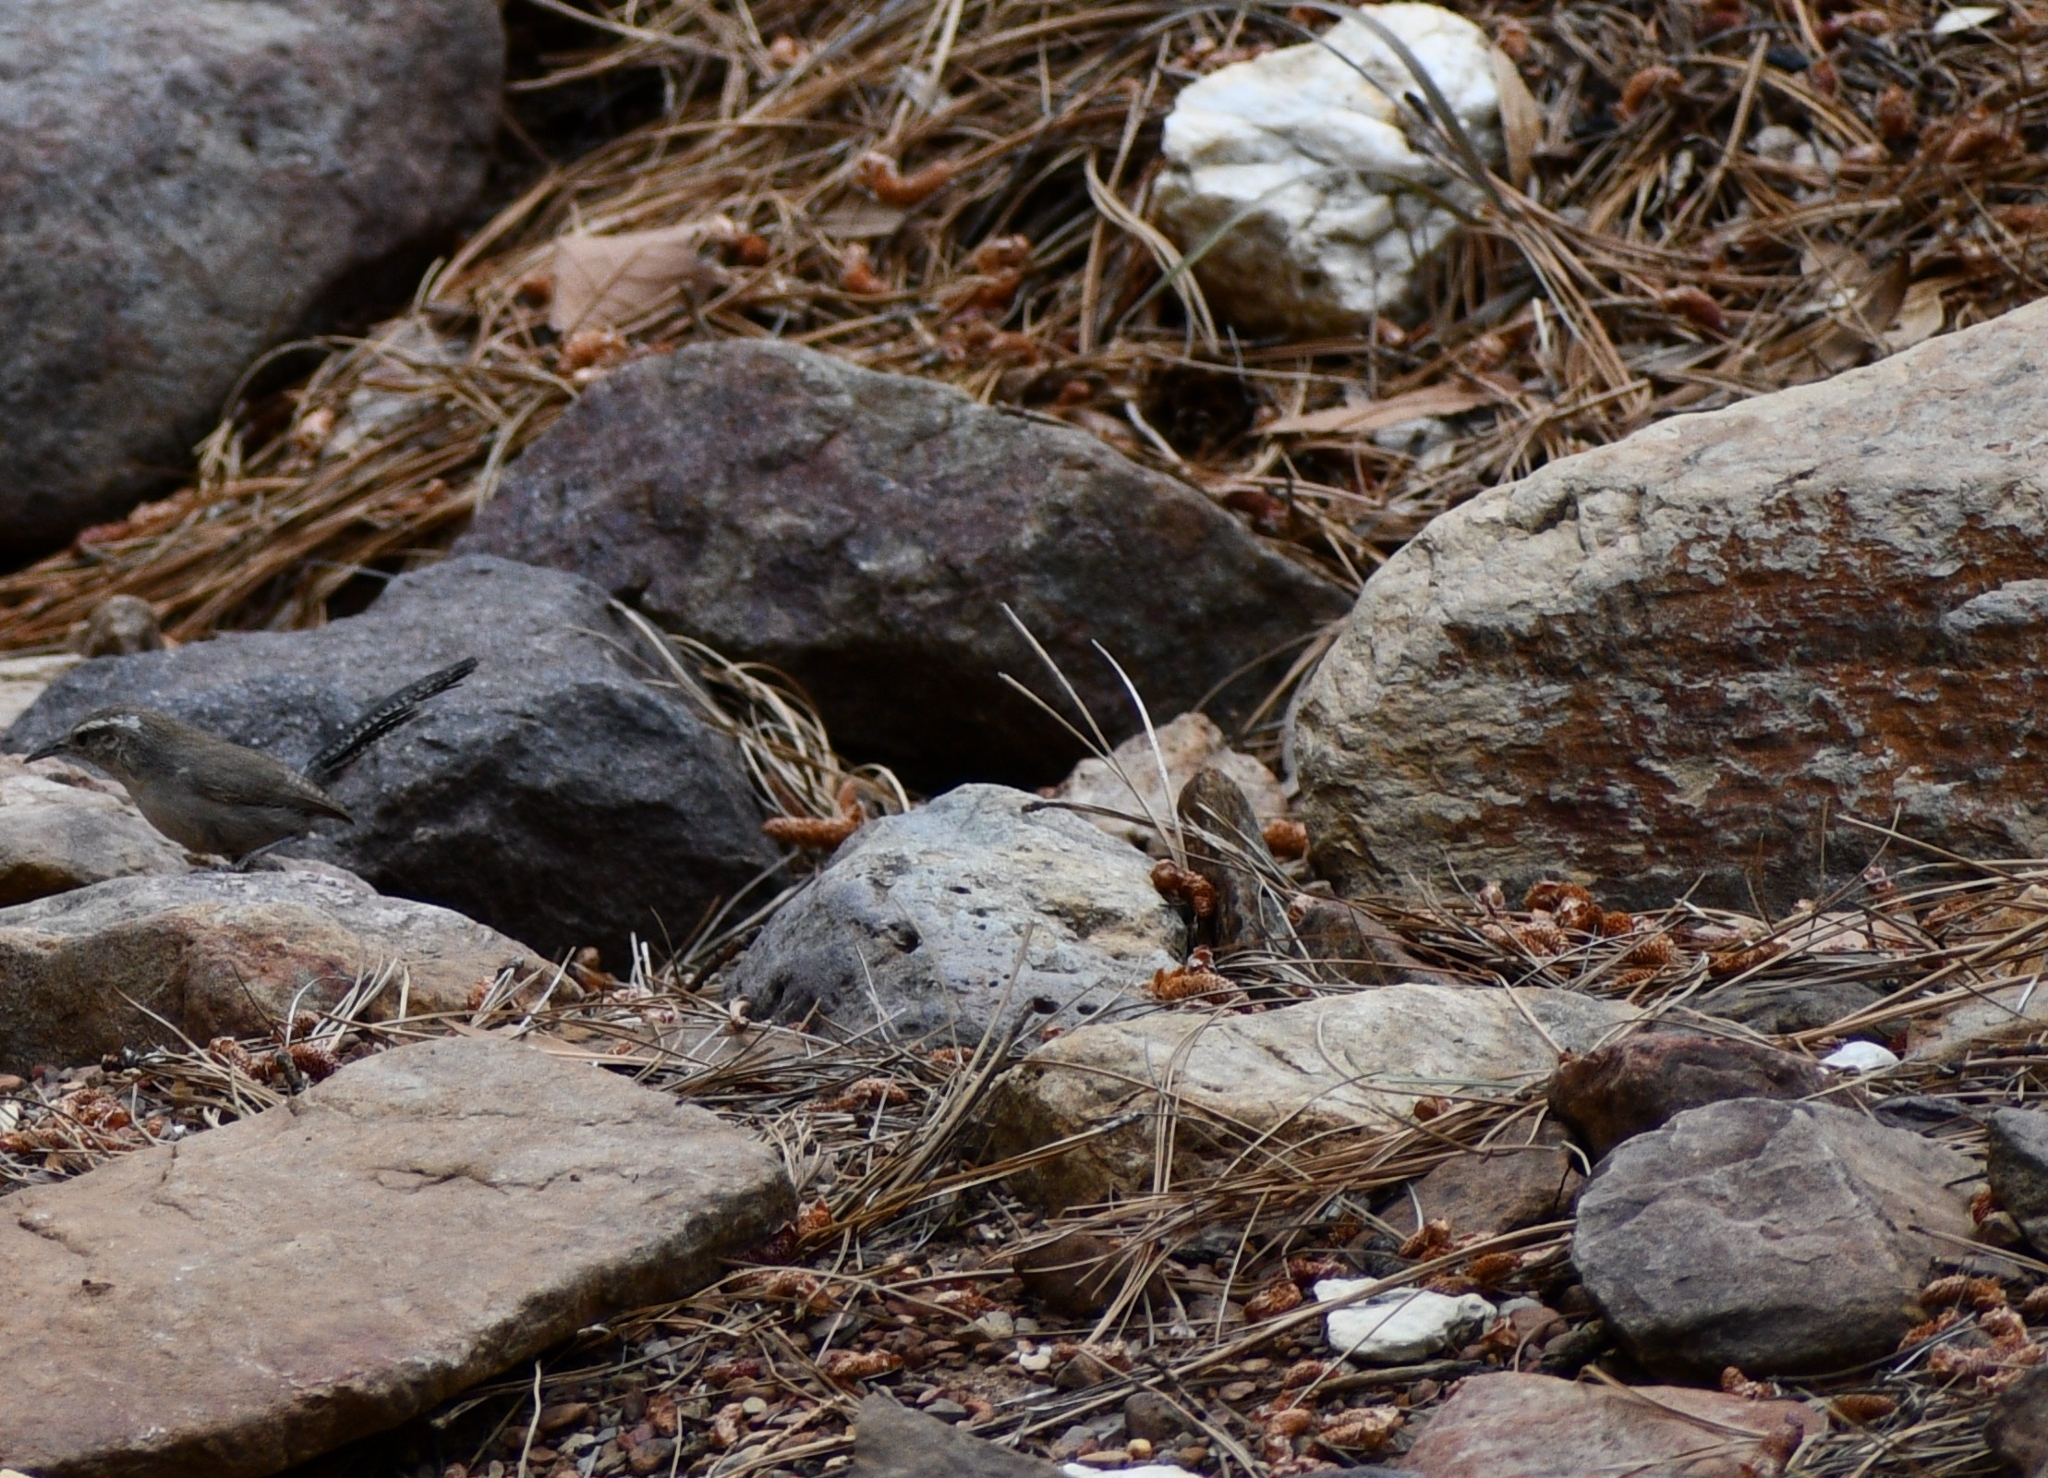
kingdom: Animalia
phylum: Chordata
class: Aves
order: Passeriformes
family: Troglodytidae
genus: Thryomanes
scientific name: Thryomanes bewickii
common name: Bewick's wren
